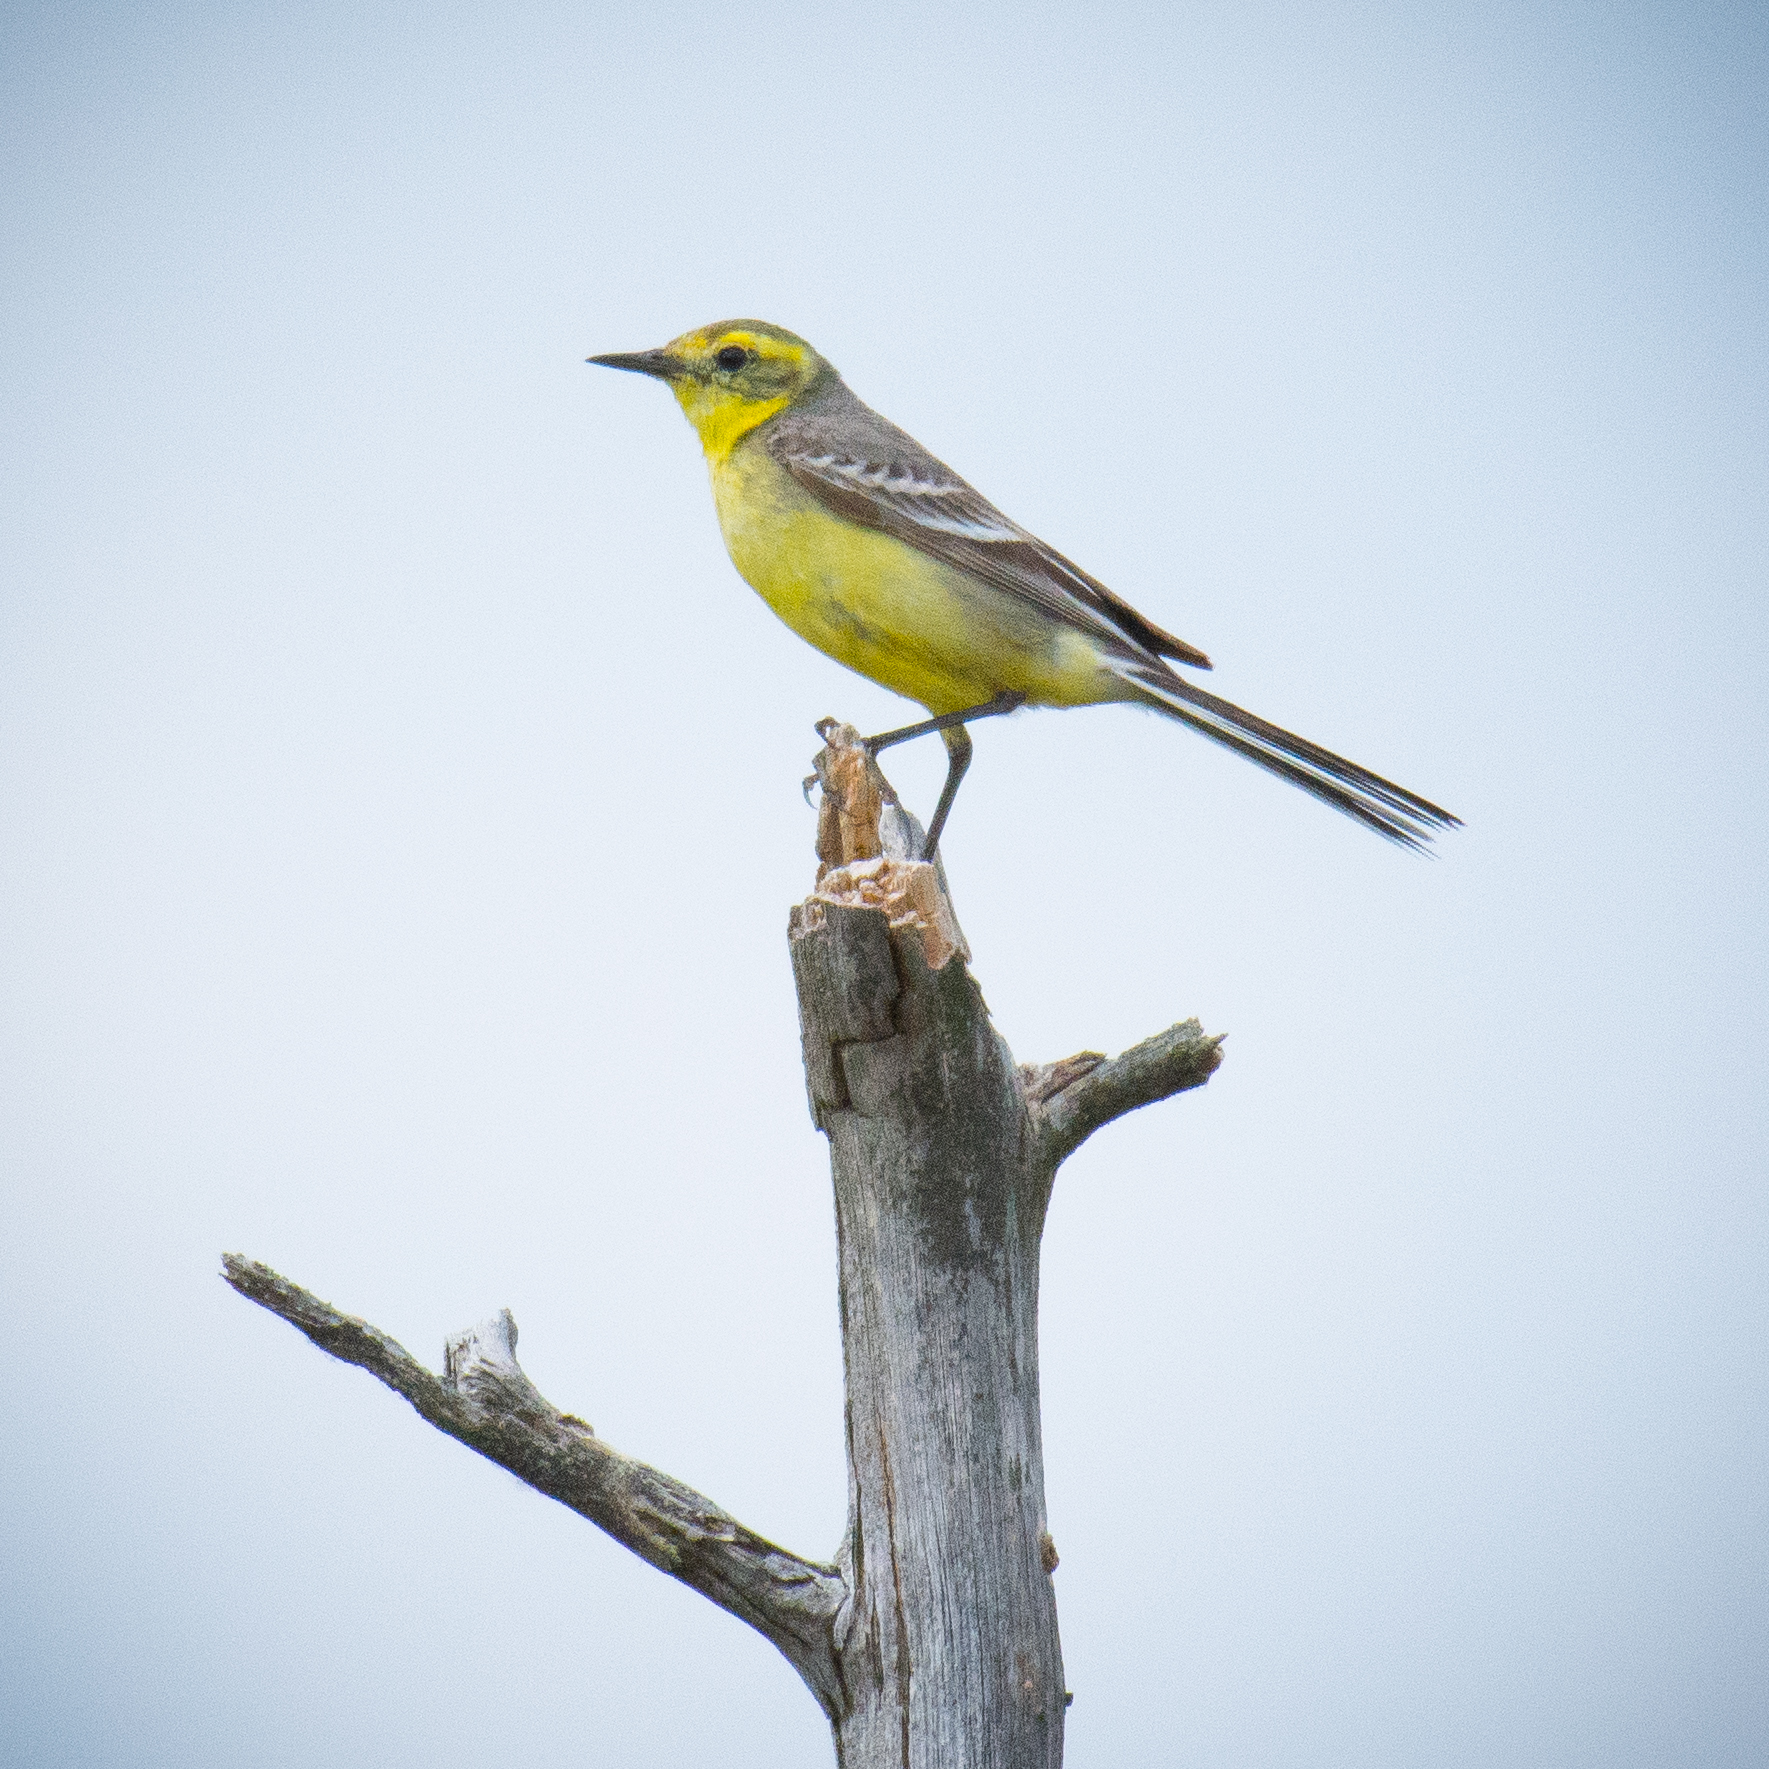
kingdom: Animalia
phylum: Chordata
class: Aves
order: Passeriformes
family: Motacillidae
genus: Motacilla
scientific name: Motacilla citreola
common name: Citrine wagtail
